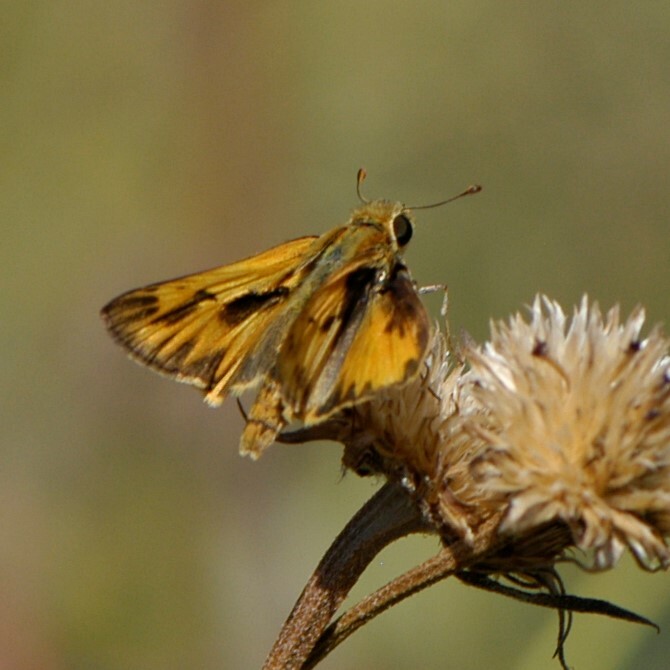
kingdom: Animalia
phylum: Arthropoda
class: Insecta
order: Lepidoptera
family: Hesperiidae
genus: Hylephila
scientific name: Hylephila phyleus
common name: Fiery skipper
